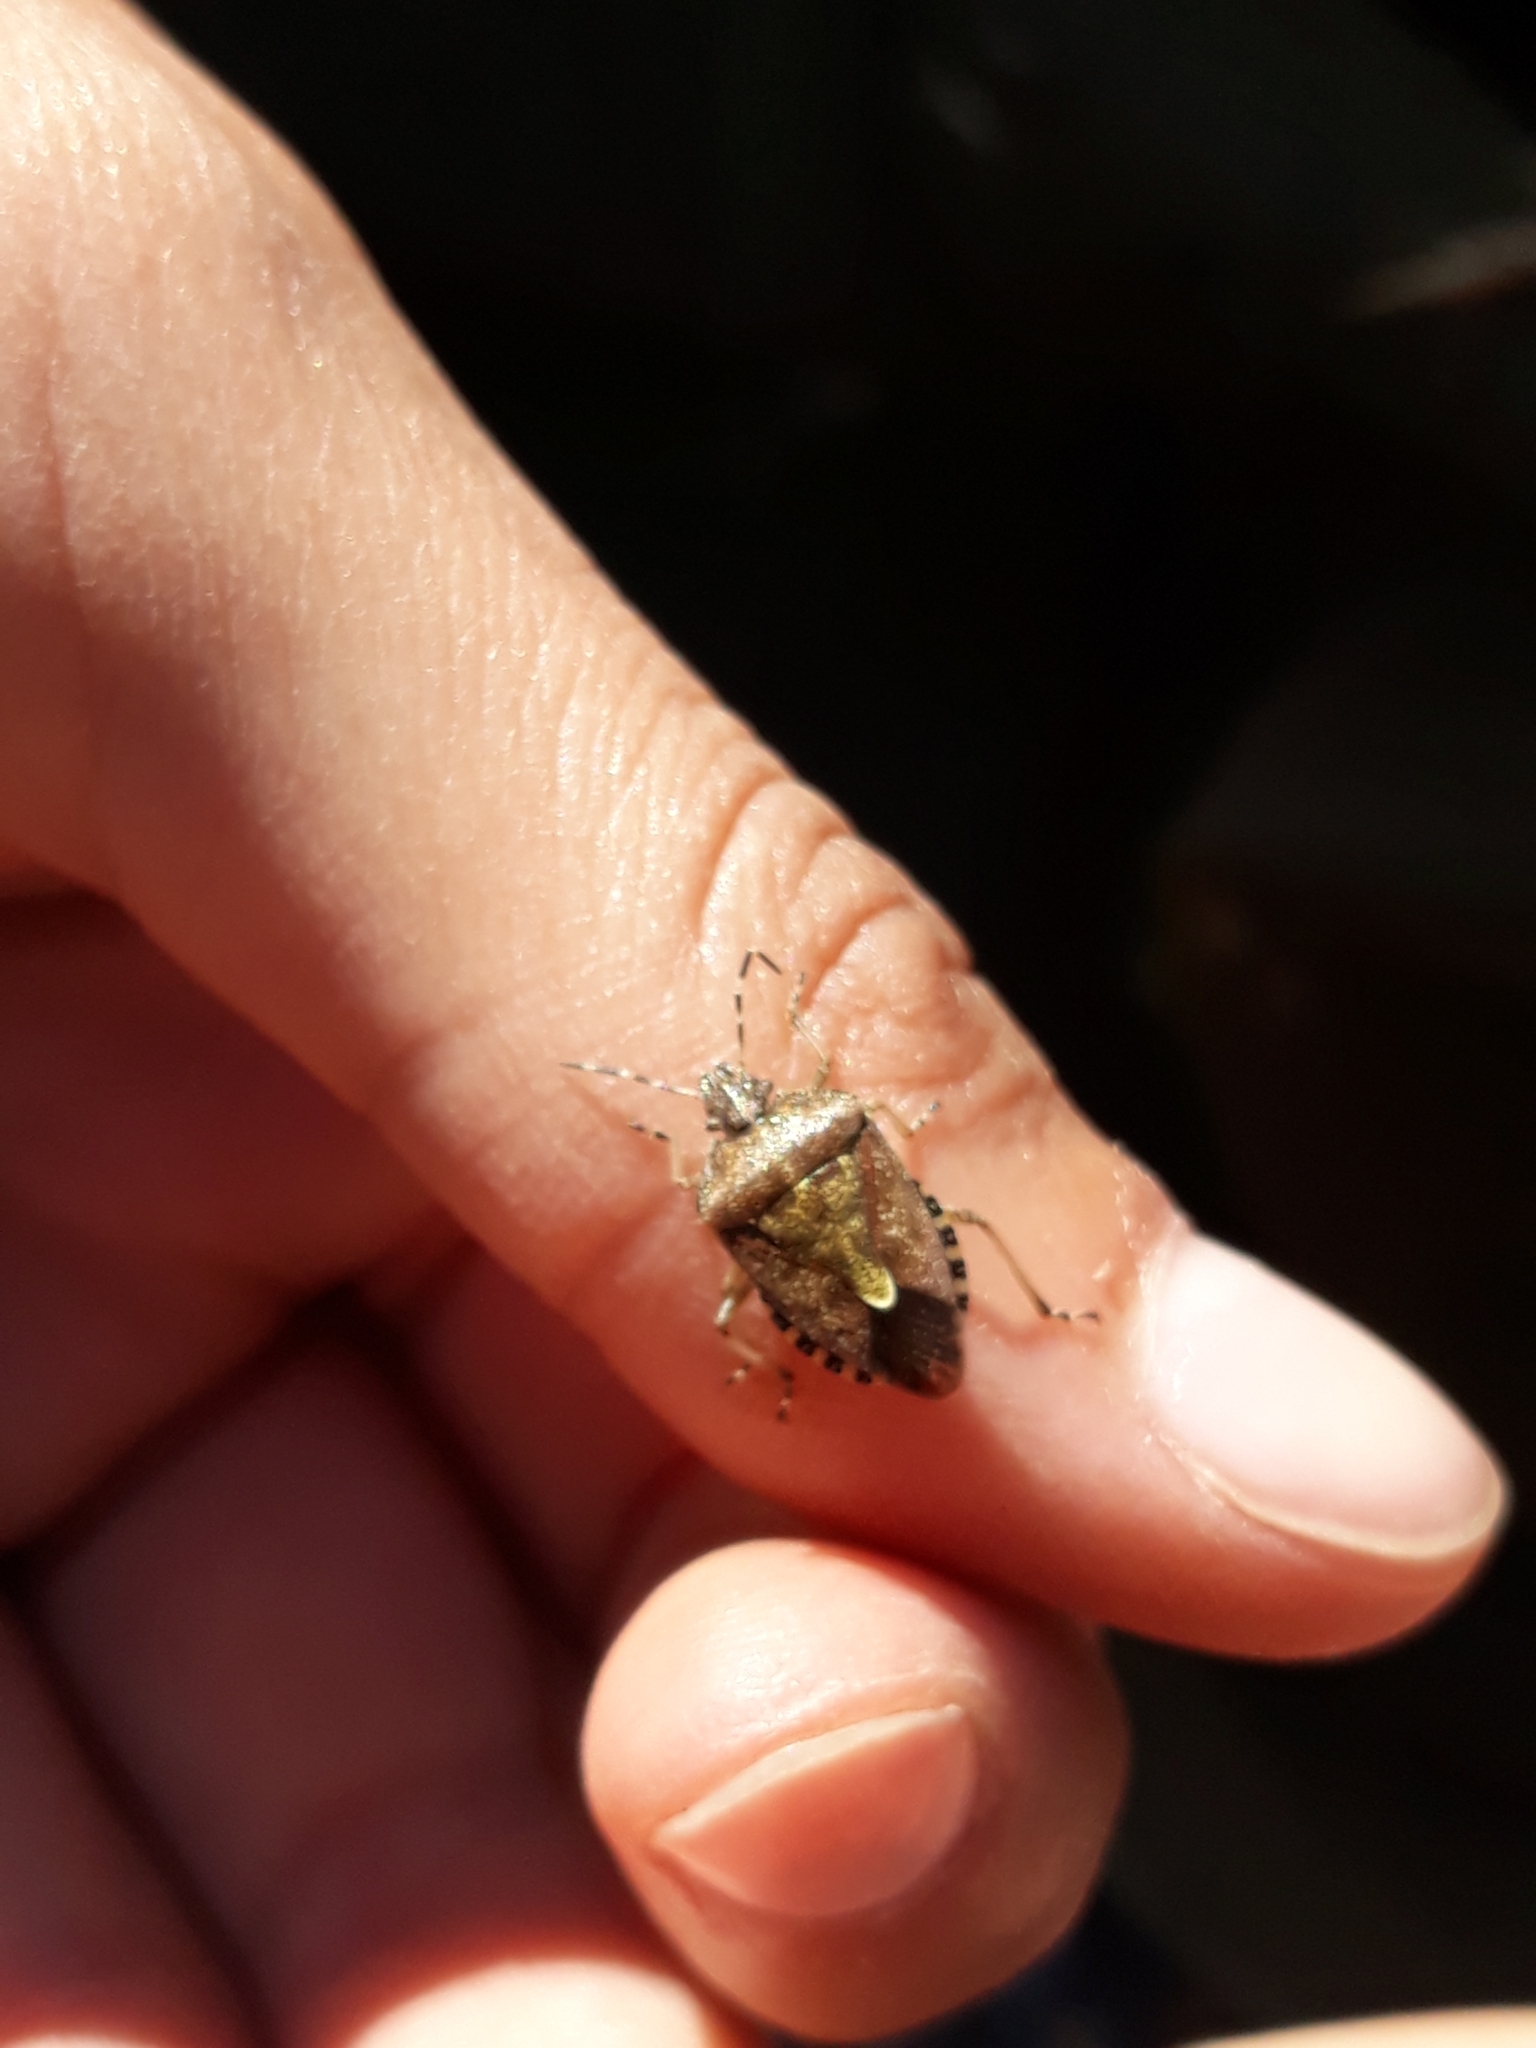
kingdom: Animalia
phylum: Arthropoda
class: Insecta
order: Hemiptera
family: Pentatomidae
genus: Dolycoris
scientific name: Dolycoris baccarum
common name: Sloe bug
